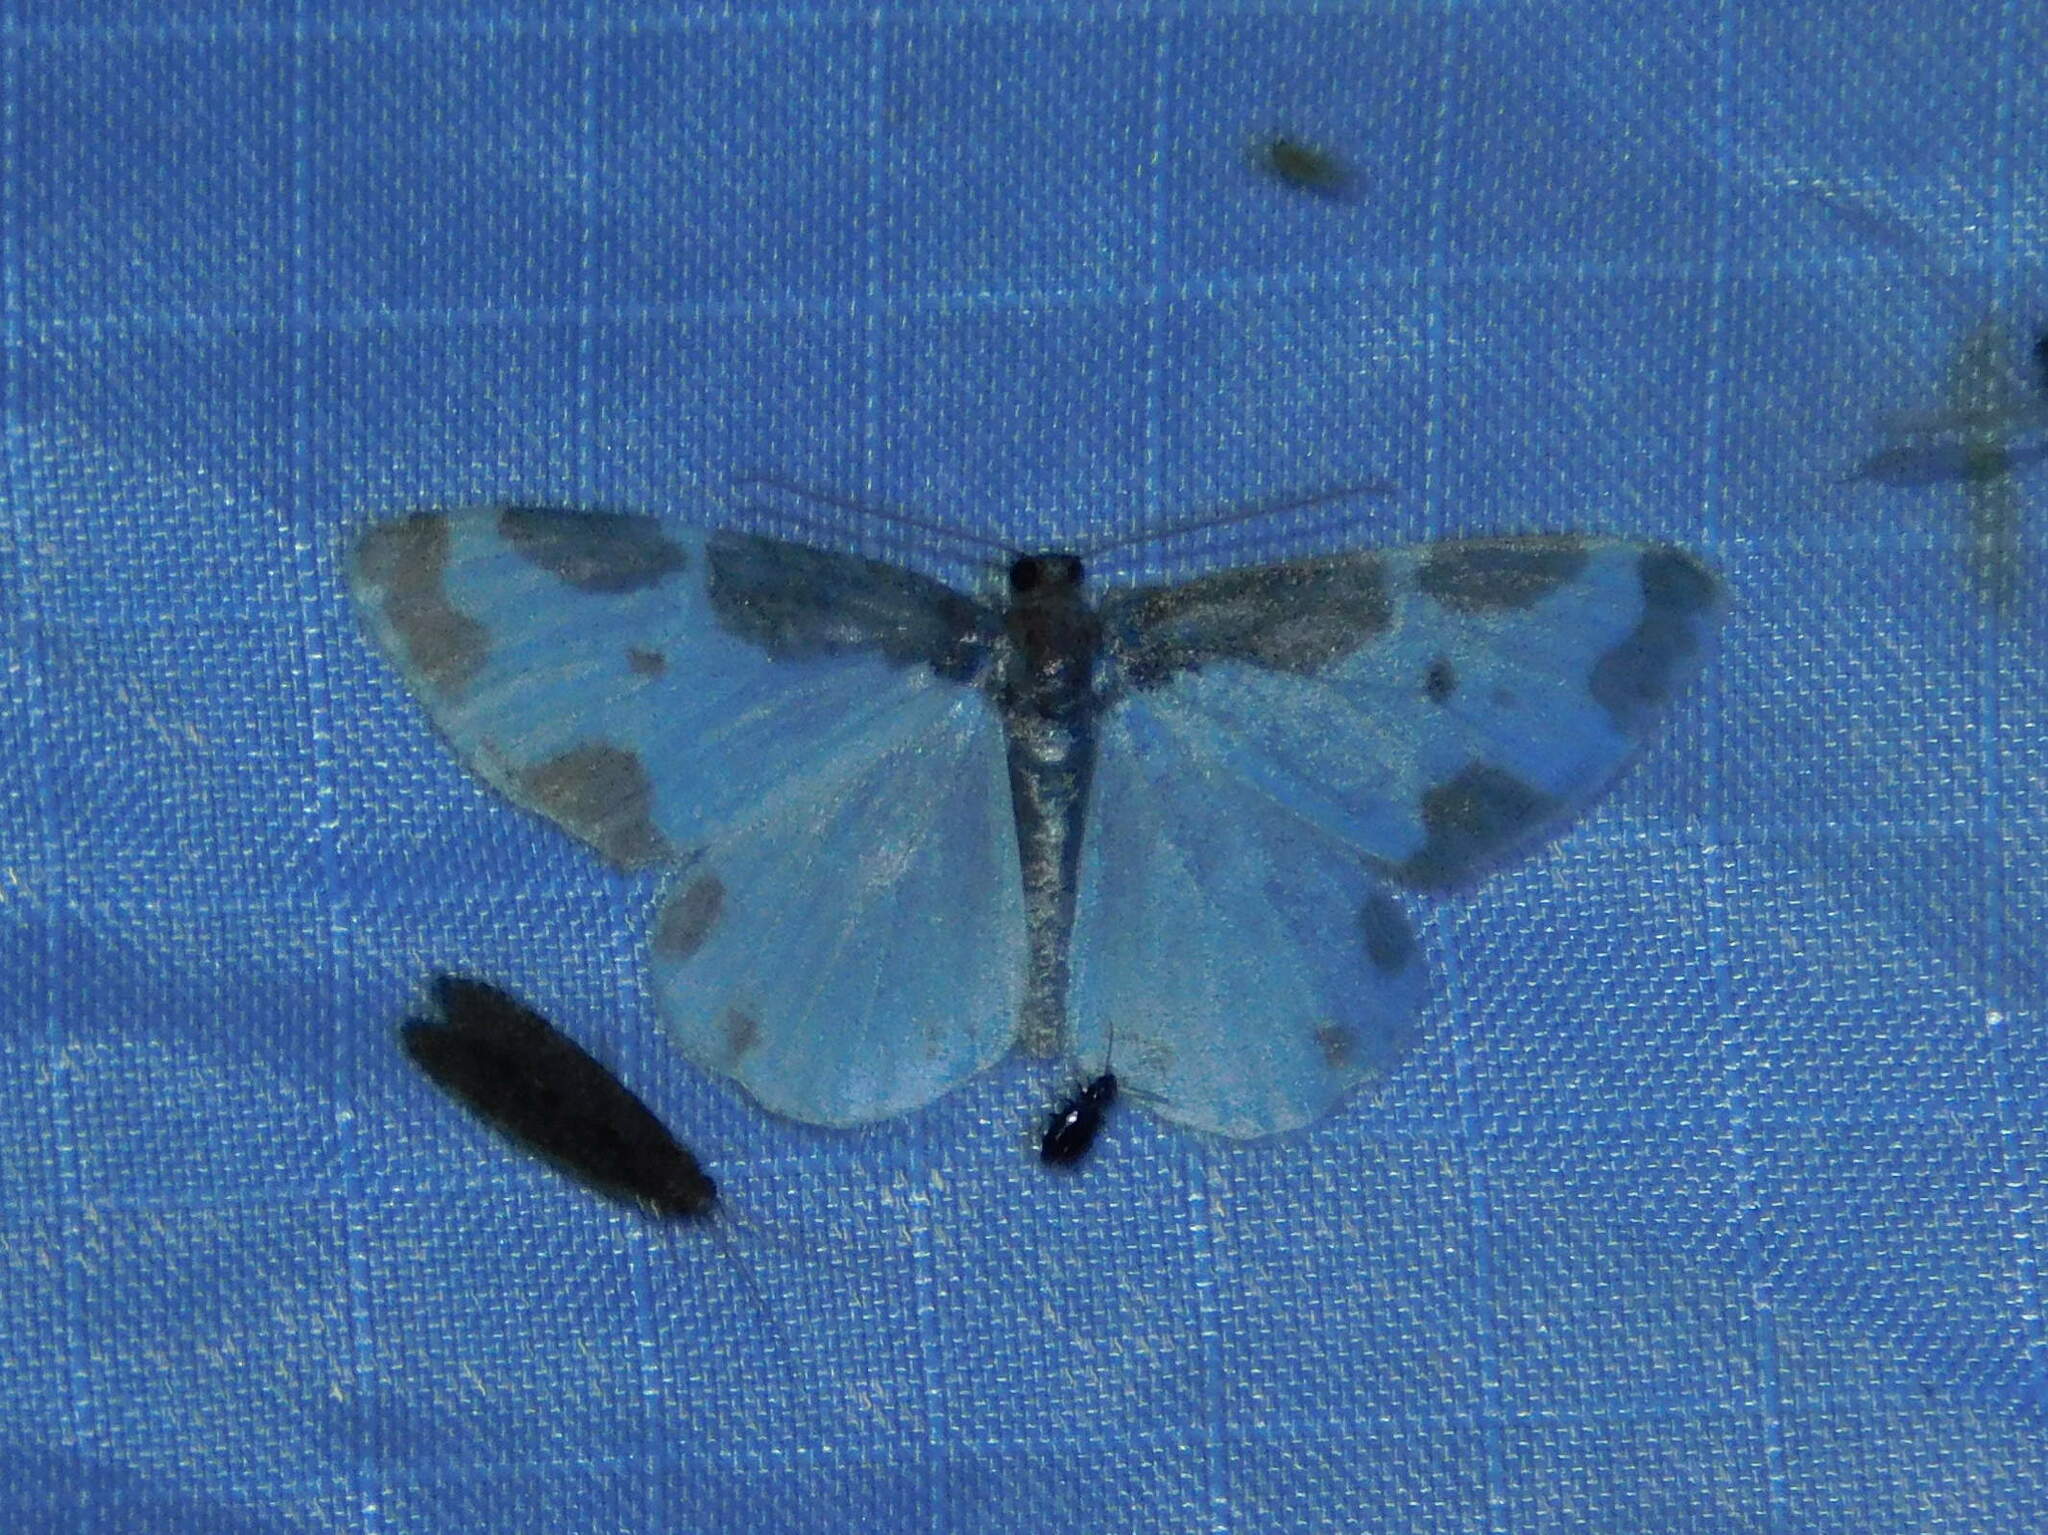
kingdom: Animalia
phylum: Arthropoda
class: Insecta
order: Lepidoptera
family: Geometridae
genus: Lomaspilis
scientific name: Lomaspilis marginata
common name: Clouded border
